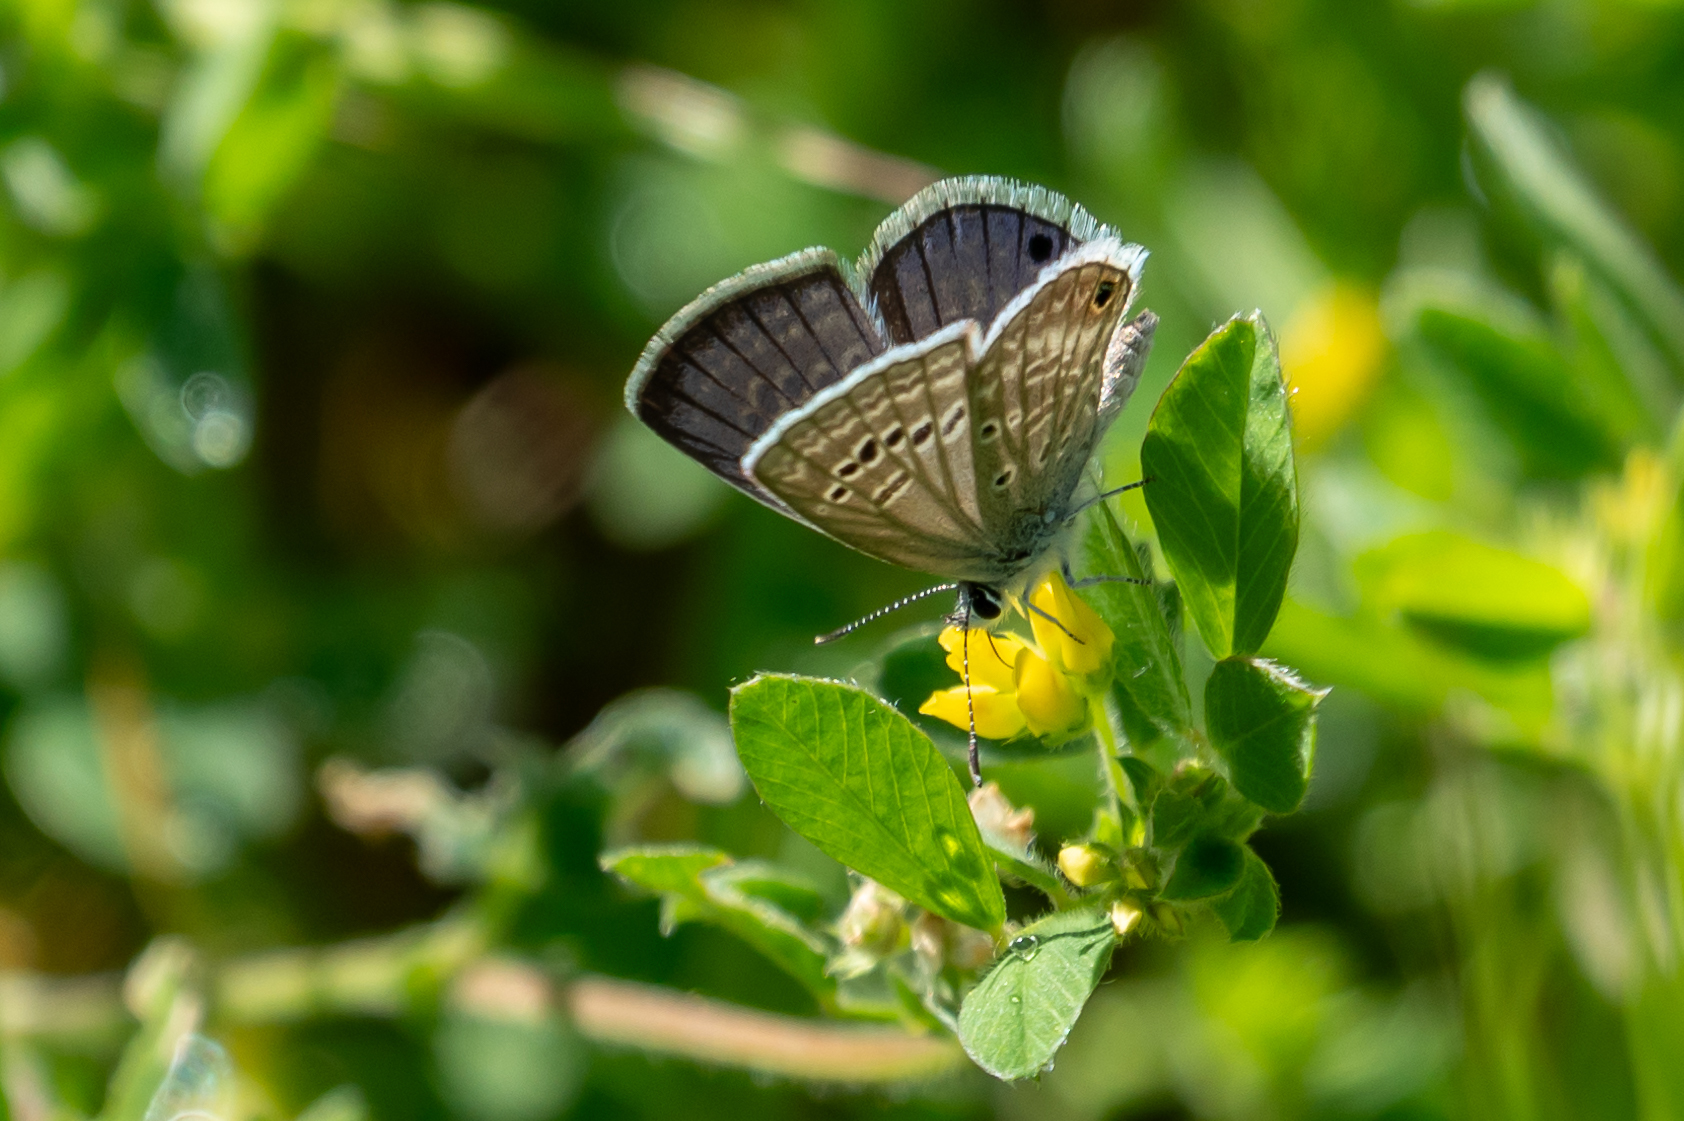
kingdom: Animalia
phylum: Arthropoda
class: Insecta
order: Lepidoptera
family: Lycaenidae
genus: Echinargus
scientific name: Echinargus isola
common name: Reakirt's blue
